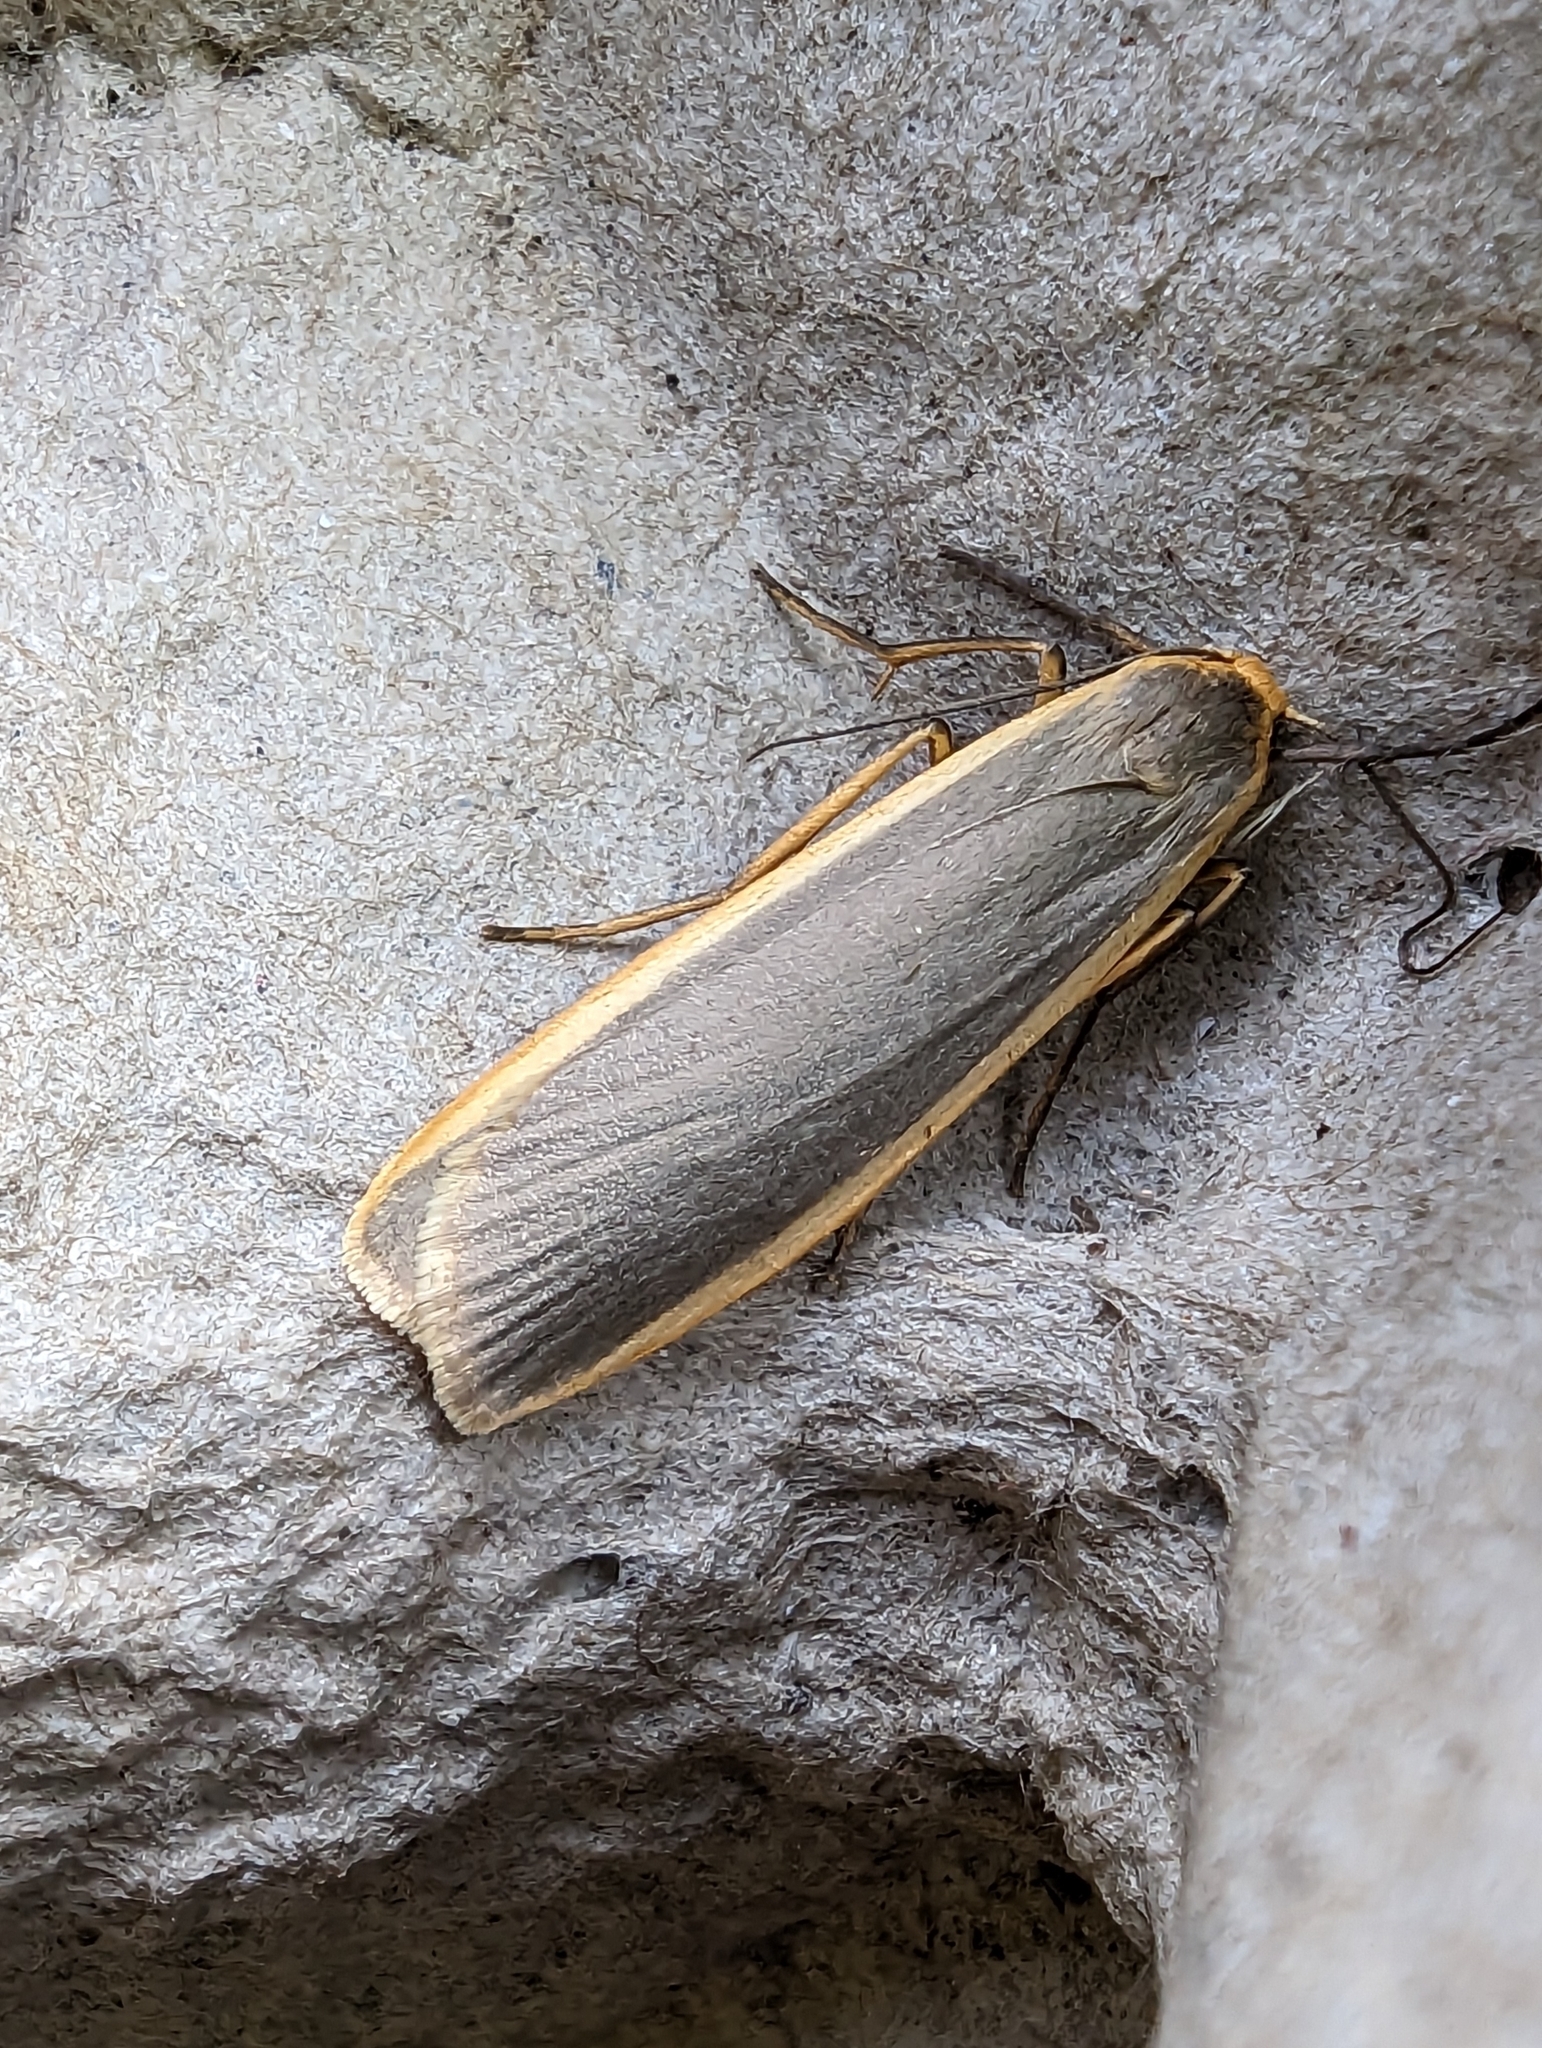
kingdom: Animalia
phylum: Arthropoda
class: Insecta
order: Lepidoptera
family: Erebidae
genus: Nyea
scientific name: Nyea lurideola
